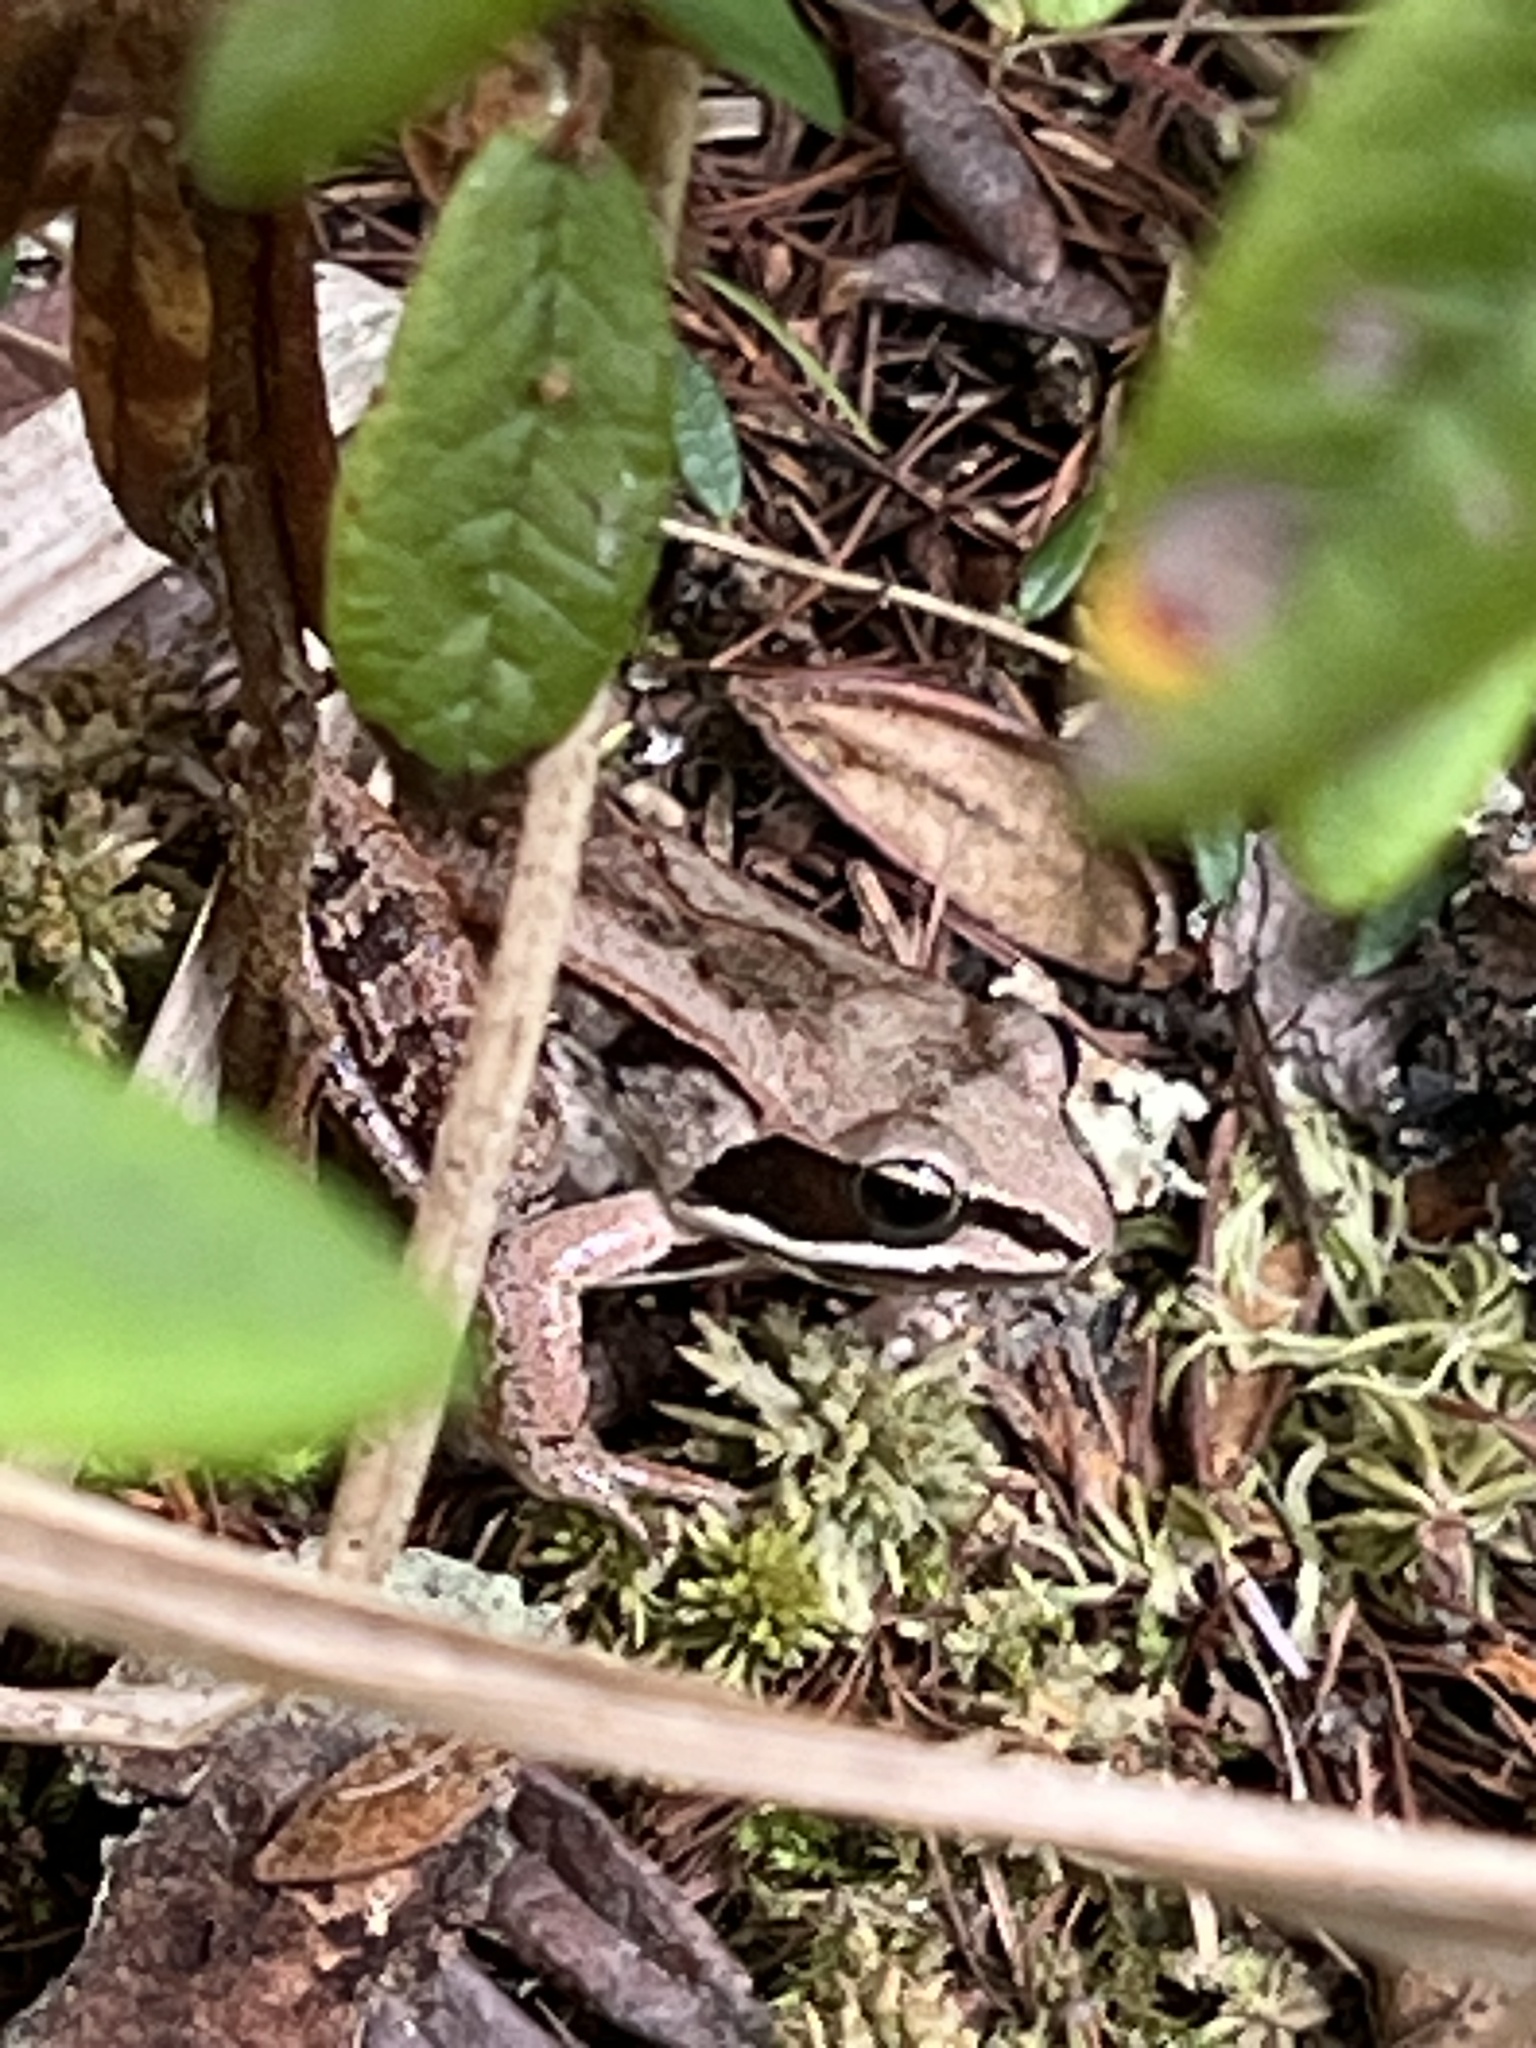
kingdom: Animalia
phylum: Chordata
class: Amphibia
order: Anura
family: Ranidae
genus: Lithobates
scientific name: Lithobates sylvaticus
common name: Wood frog
